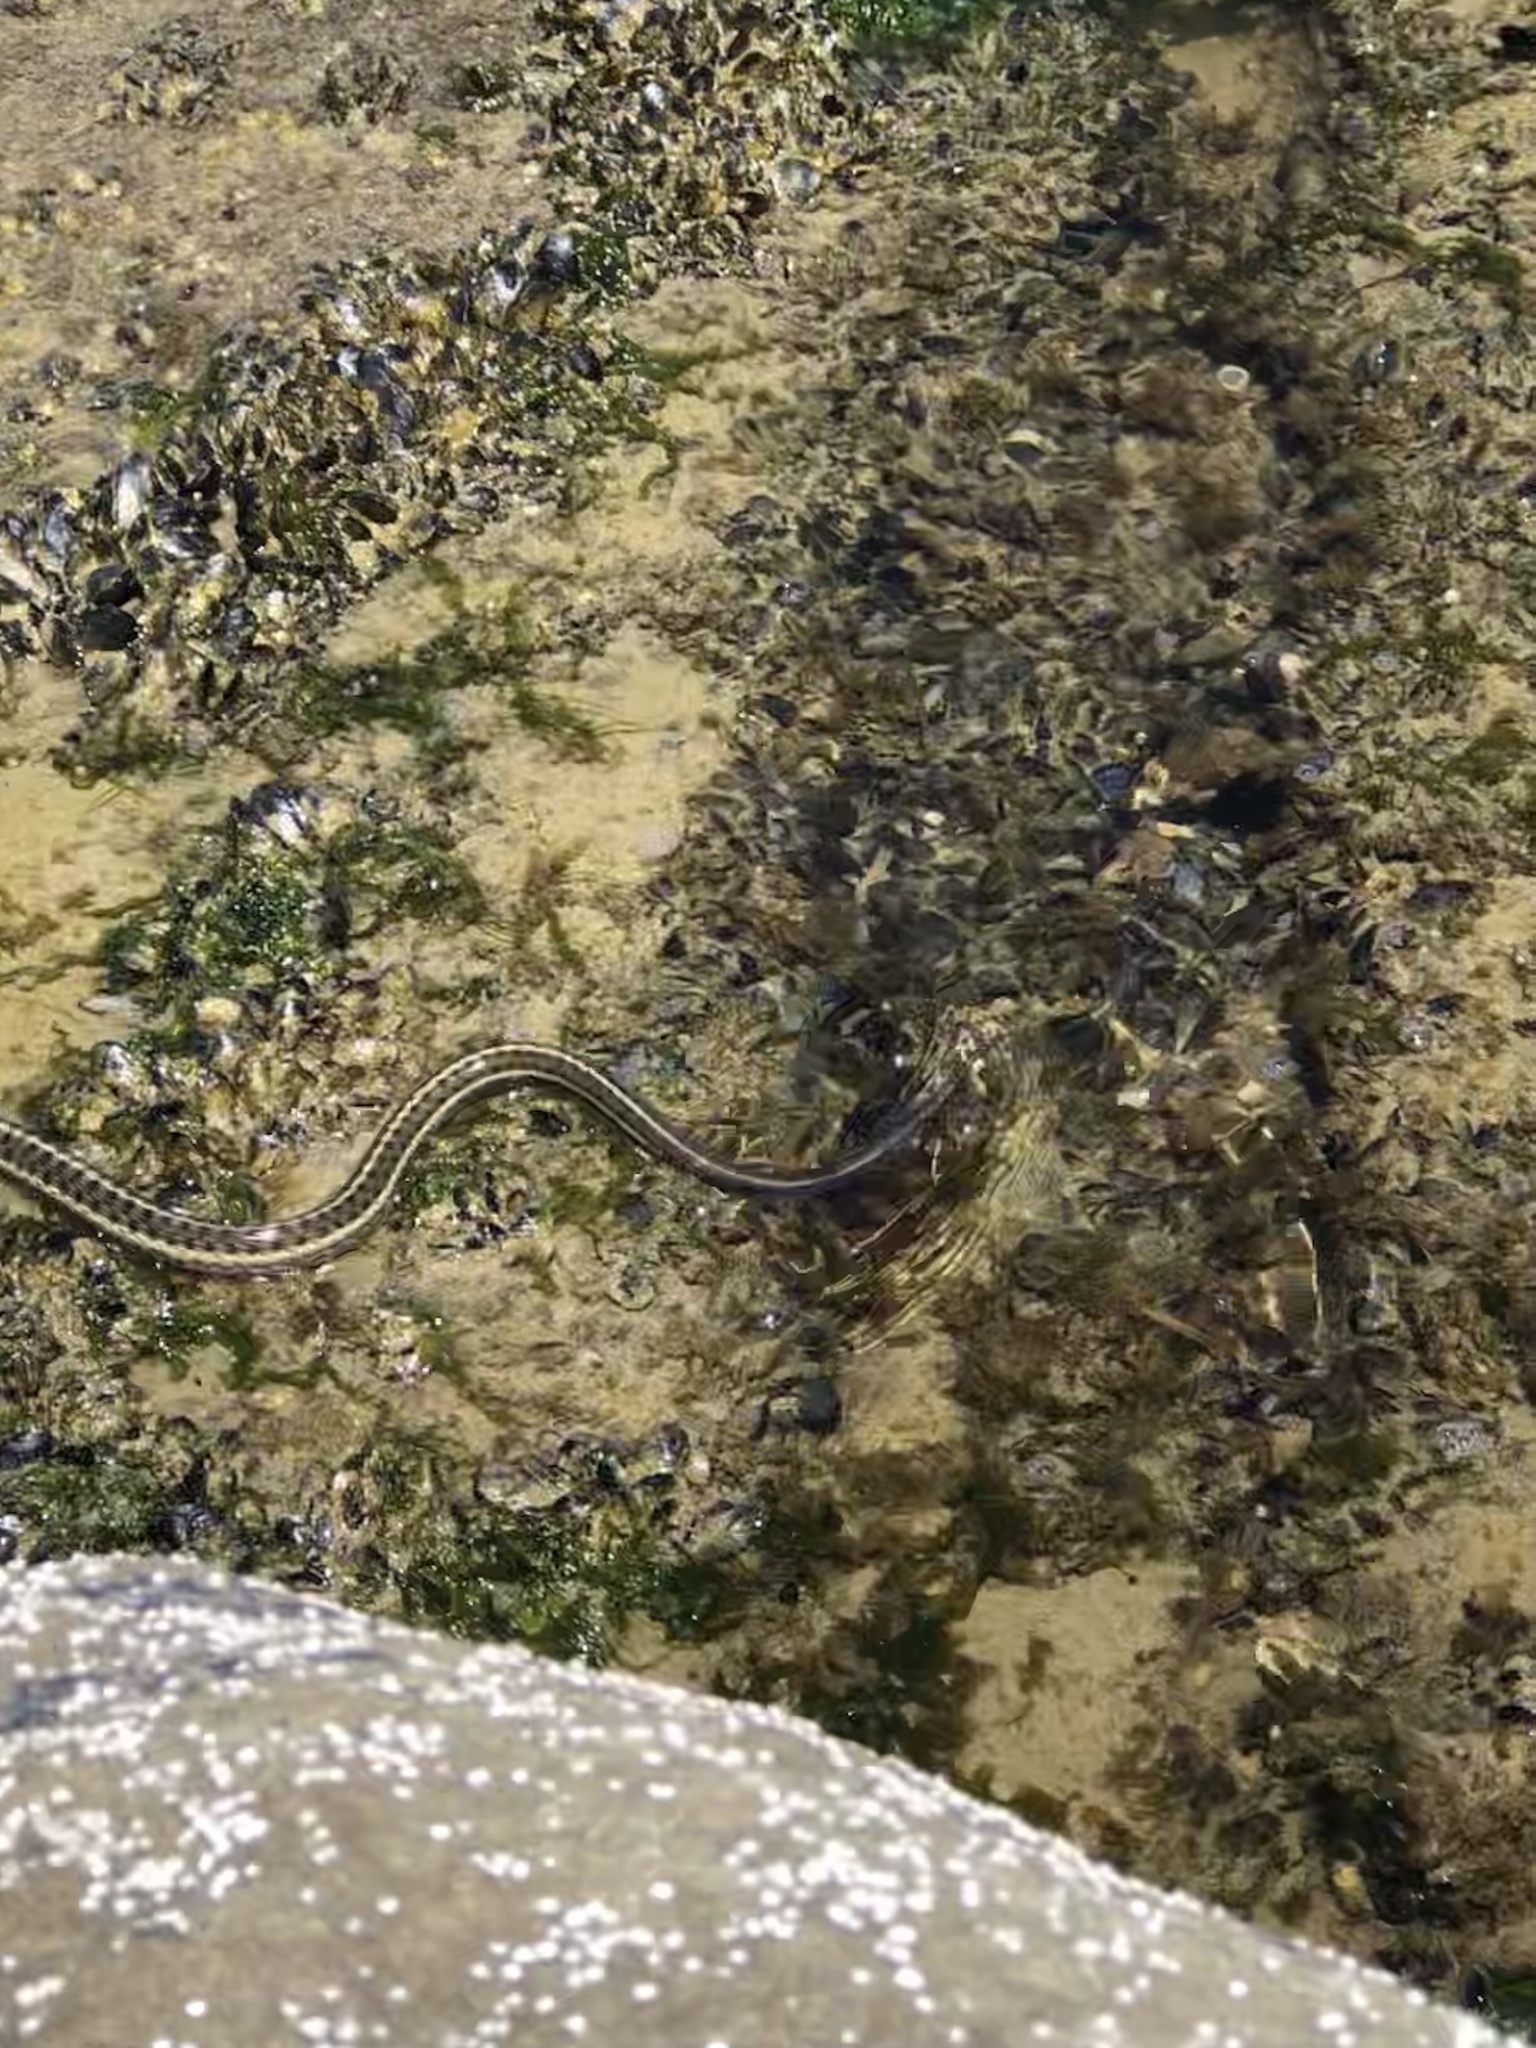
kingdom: Animalia
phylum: Chordata
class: Squamata
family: Colubridae
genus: Thamnophis
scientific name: Thamnophis elegans
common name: Western terrestrial garter snake
